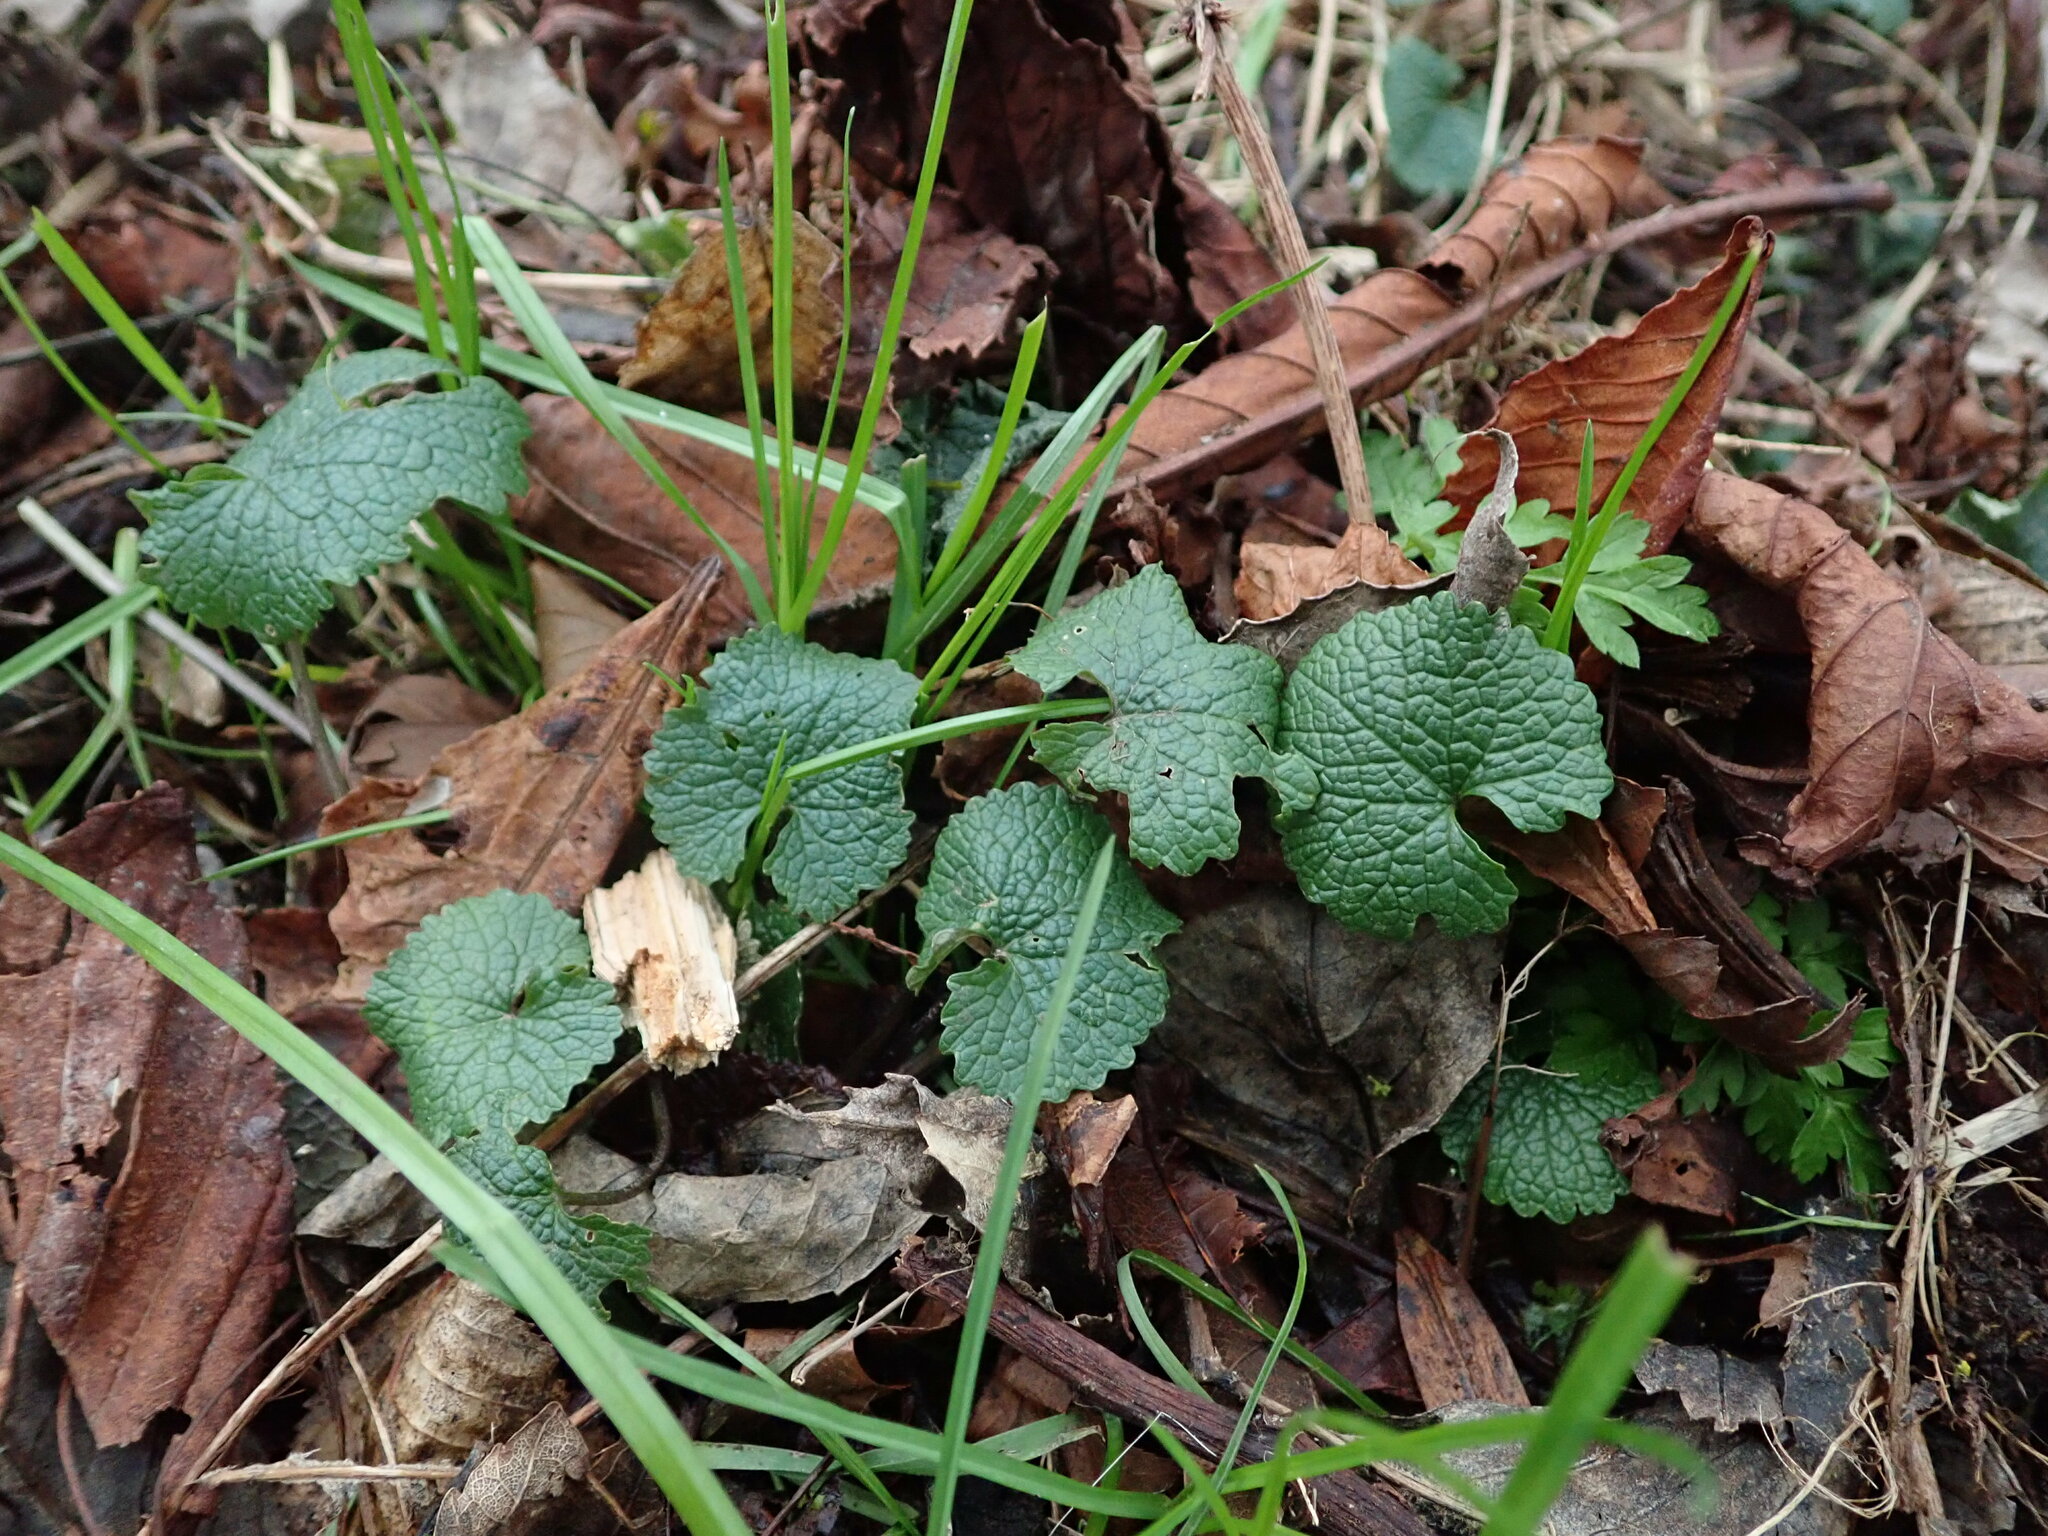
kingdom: Plantae
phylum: Tracheophyta
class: Magnoliopsida
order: Brassicales
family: Brassicaceae
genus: Alliaria
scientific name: Alliaria petiolata
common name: Garlic mustard
